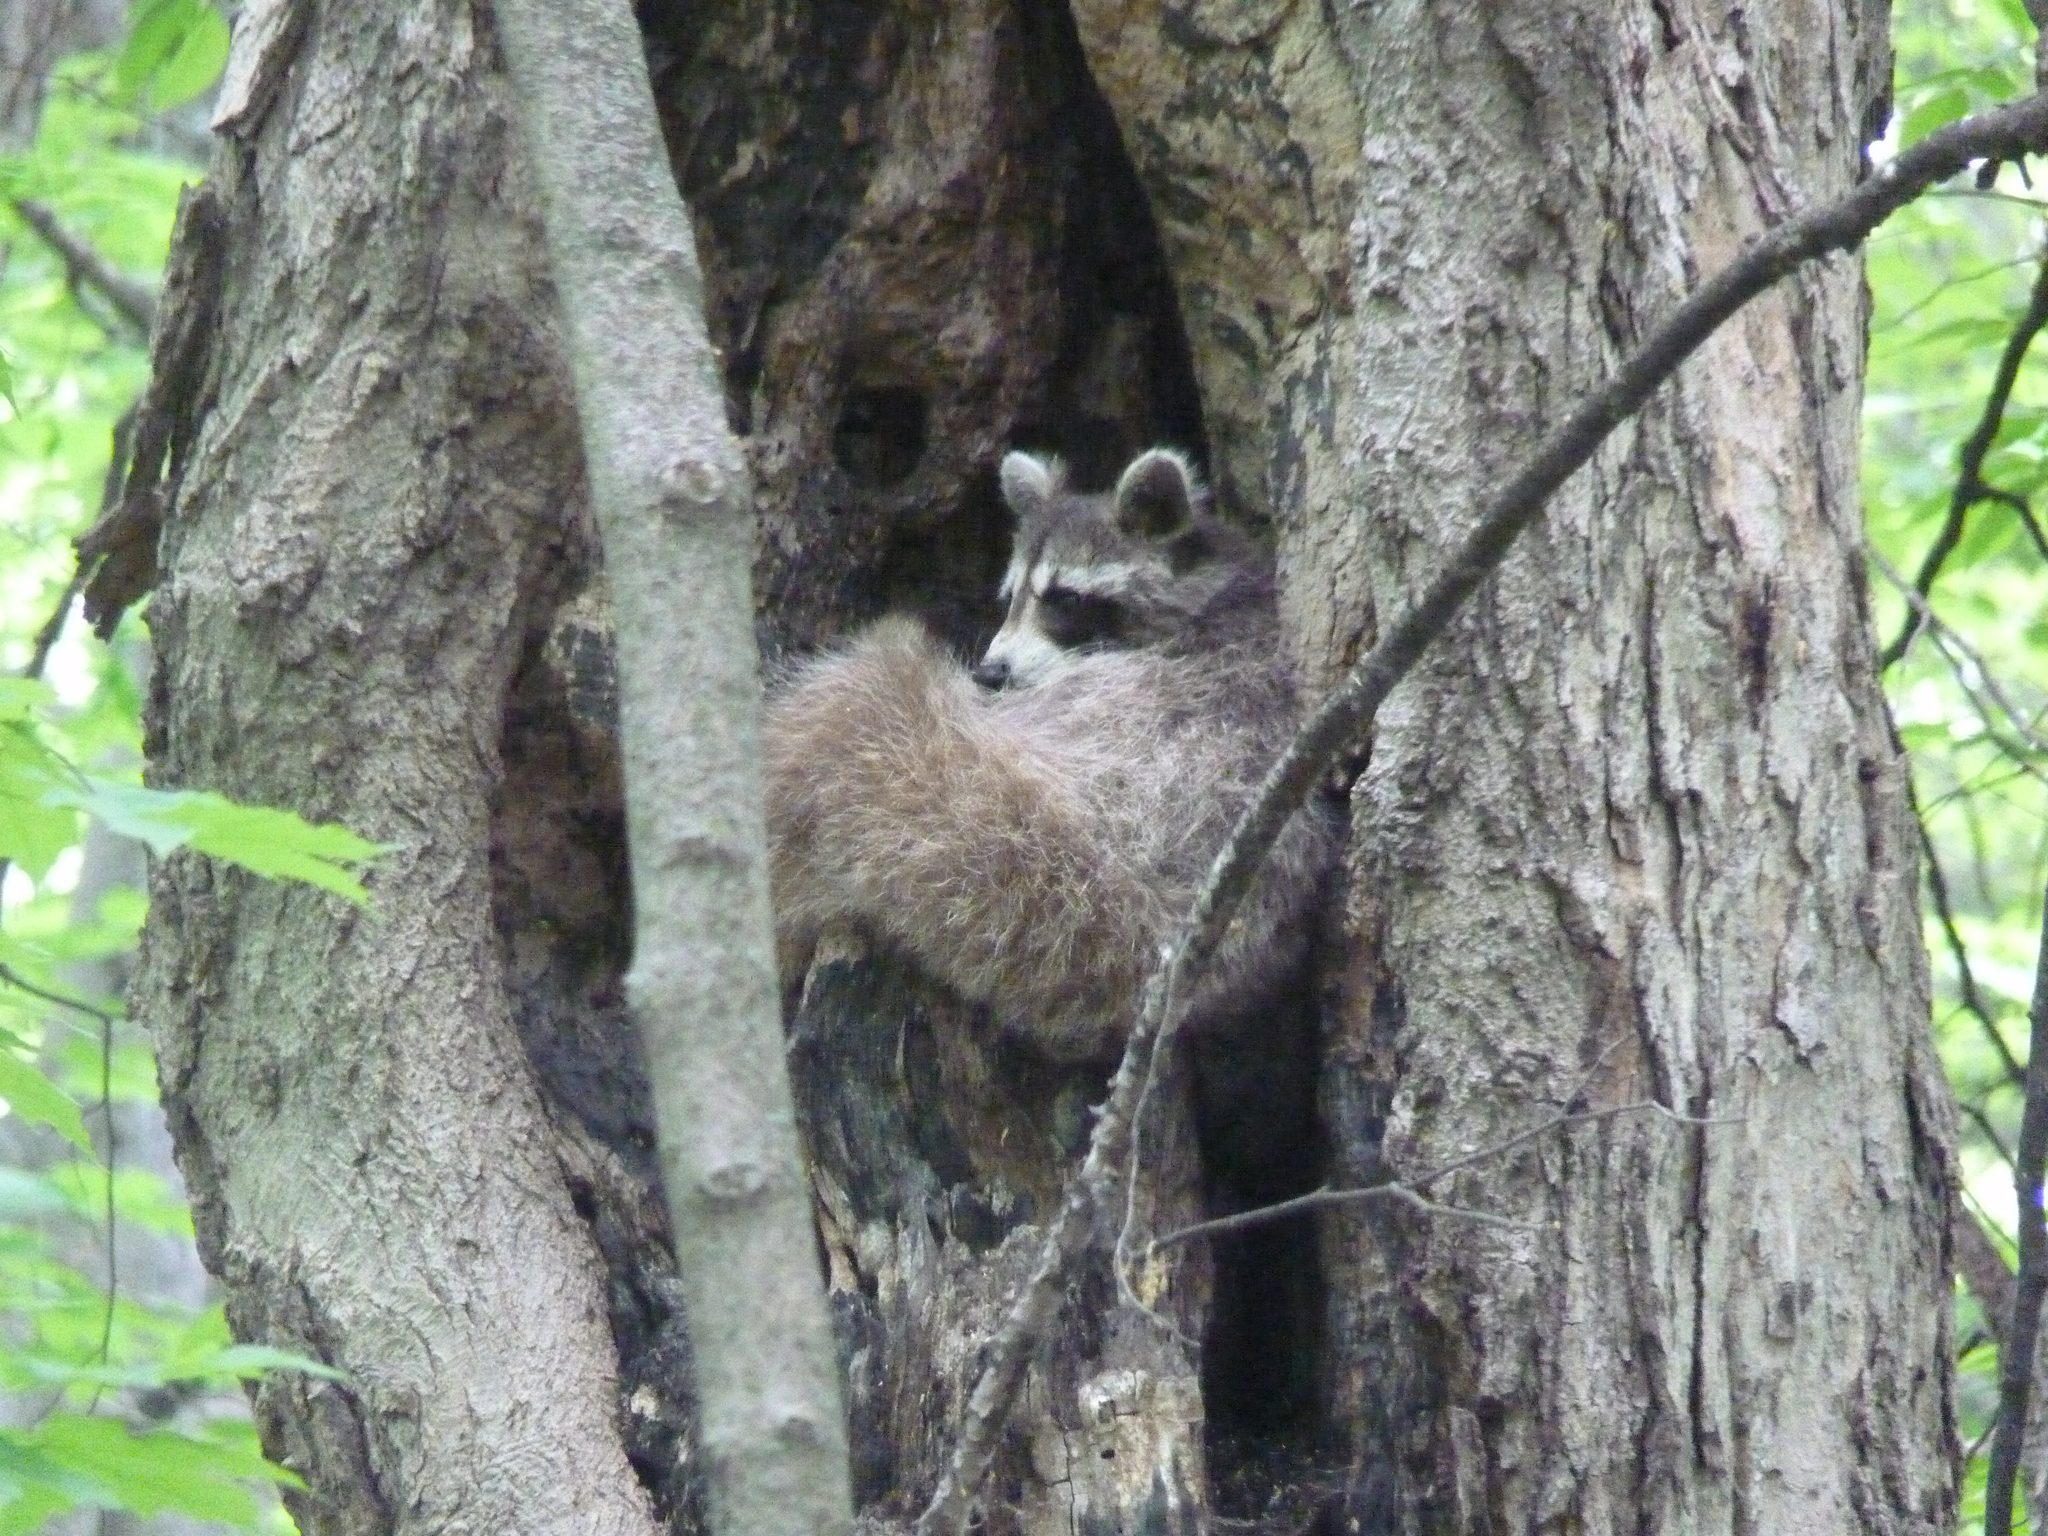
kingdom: Animalia
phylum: Chordata
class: Mammalia
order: Carnivora
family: Procyonidae
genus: Procyon
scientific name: Procyon lotor
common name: Raccoon
